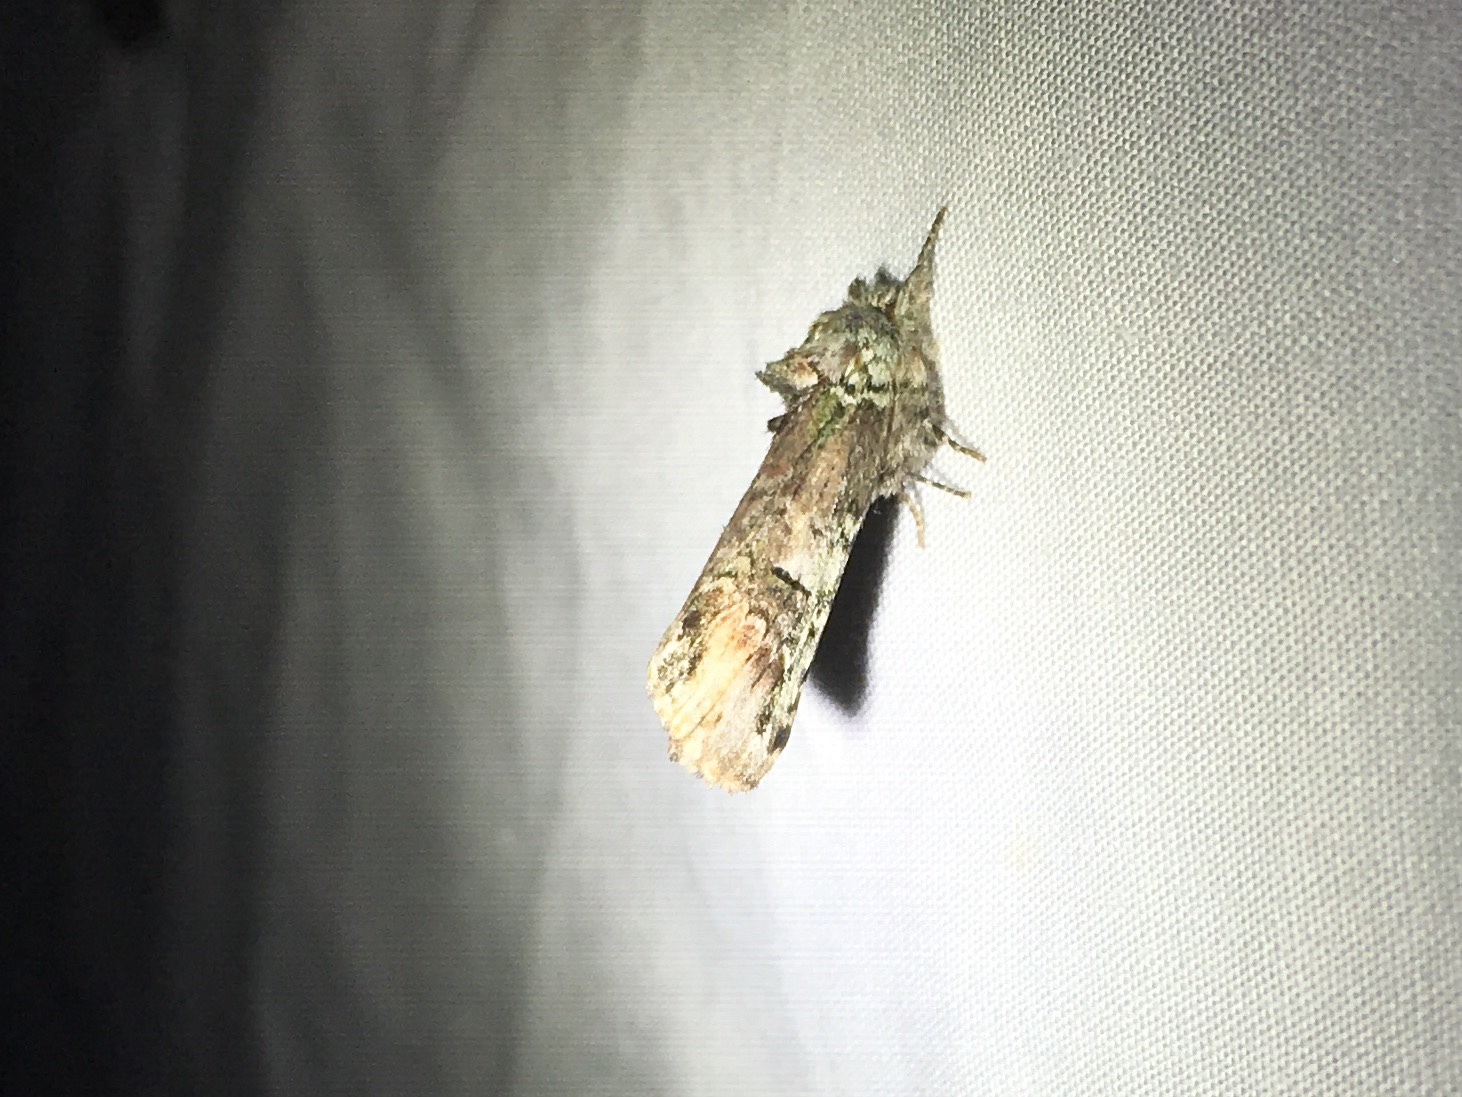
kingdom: Animalia
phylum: Arthropoda
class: Insecta
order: Lepidoptera
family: Notodontidae
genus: Schizura
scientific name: Schizura
